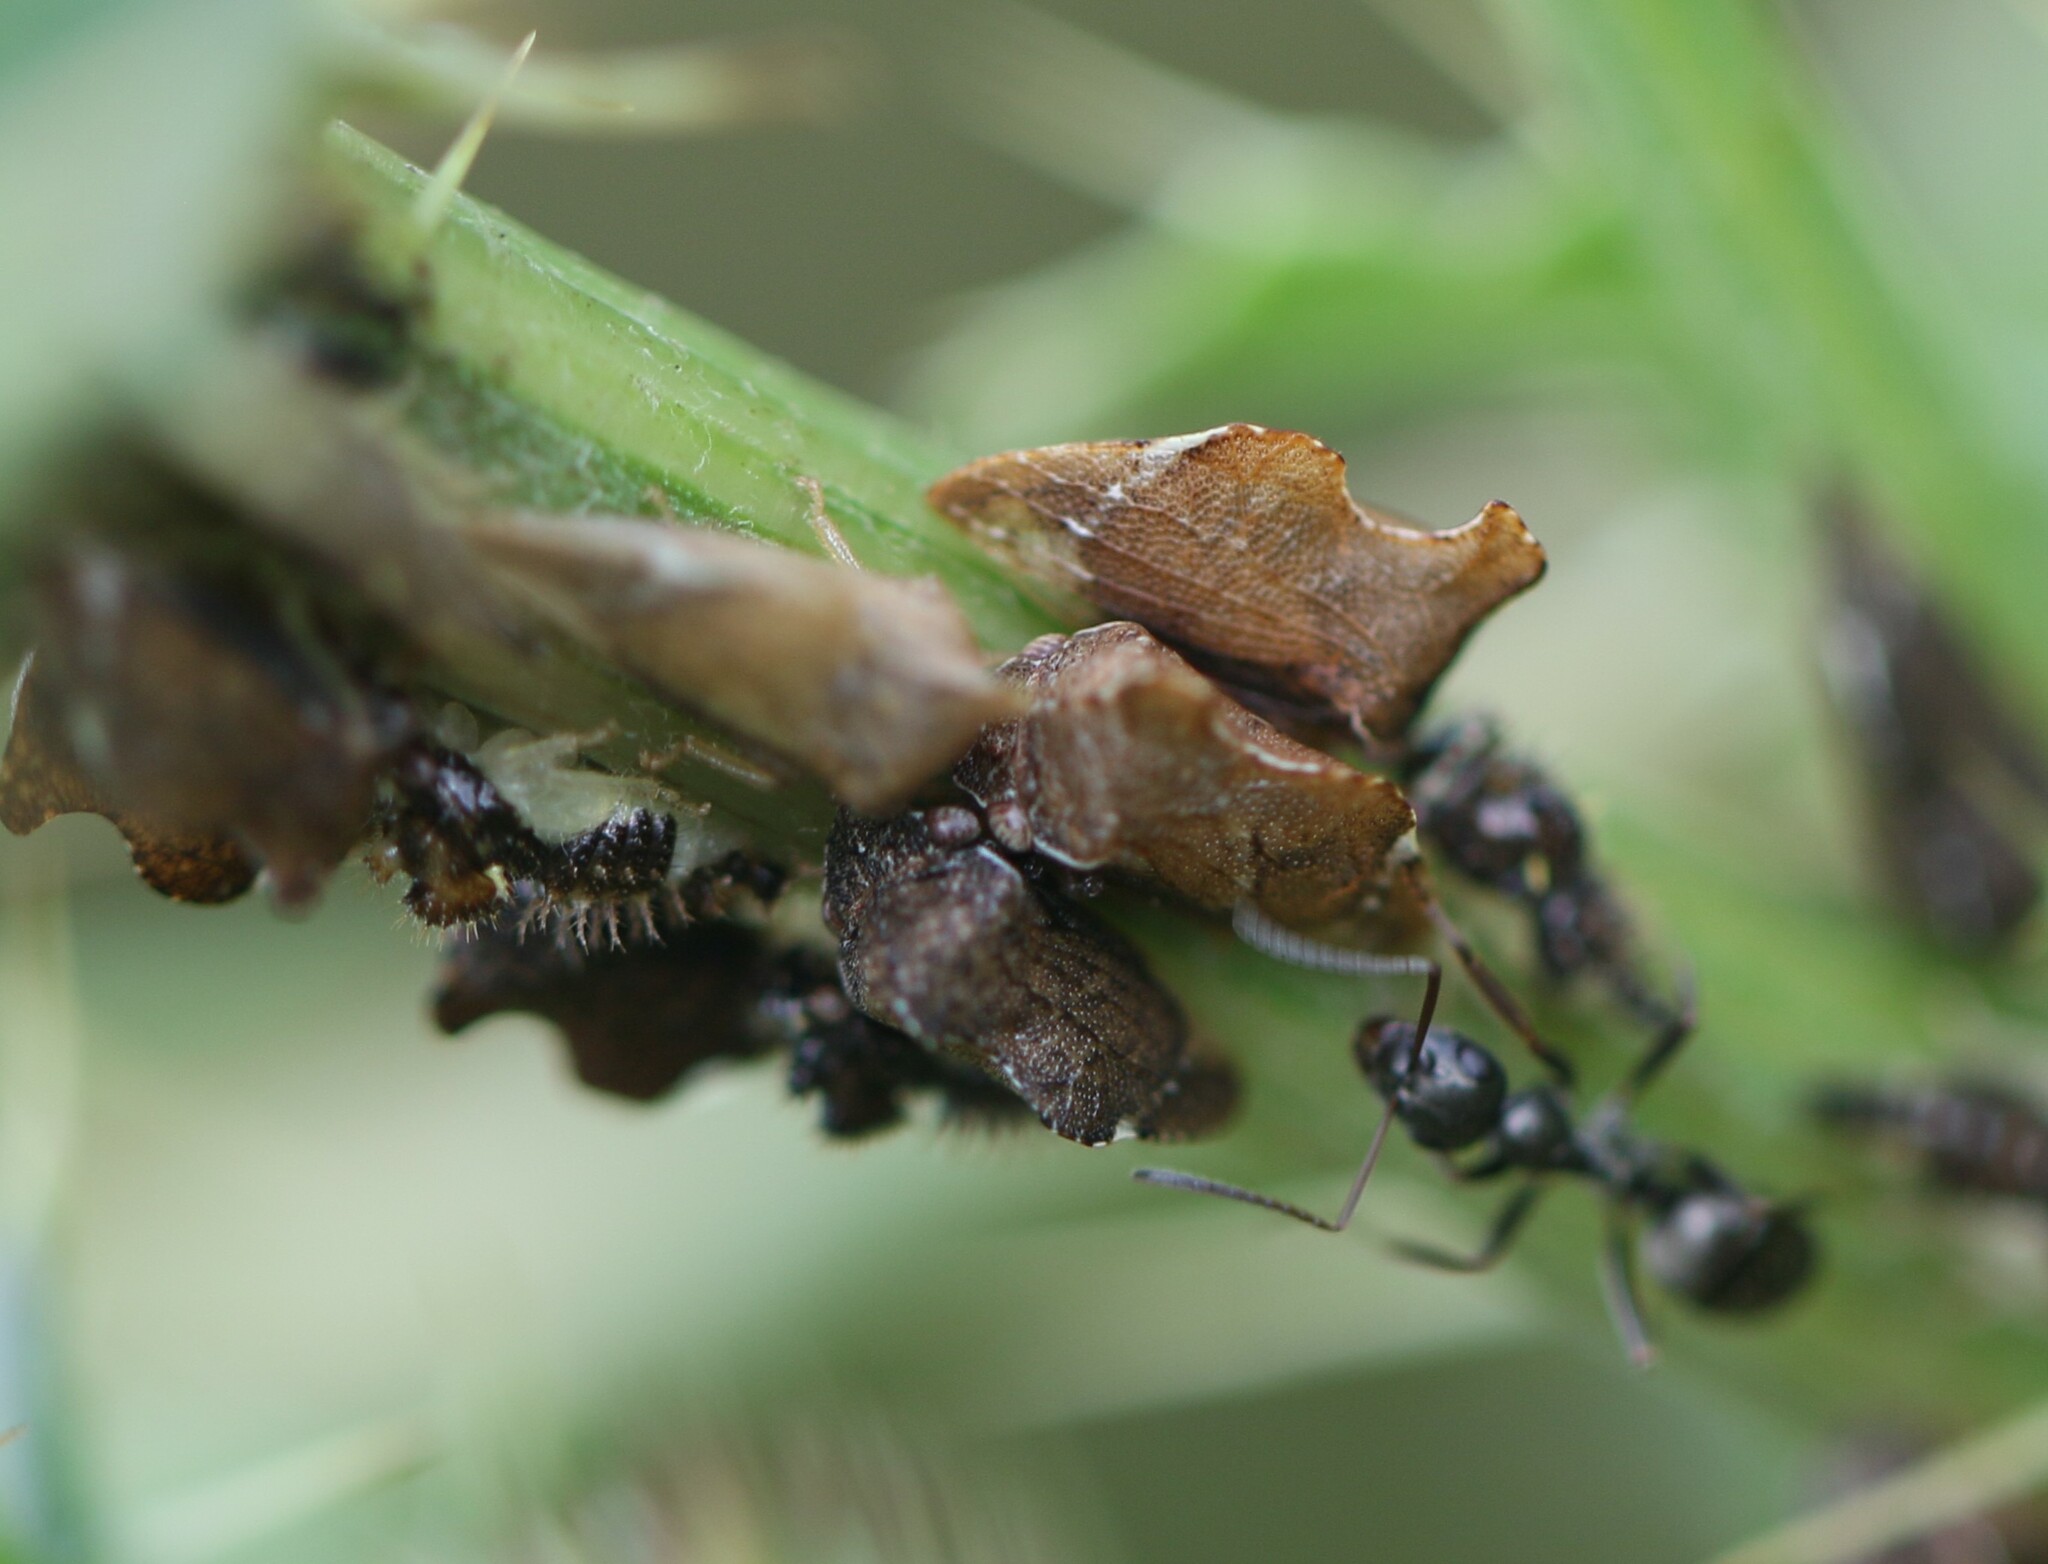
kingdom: Animalia
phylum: Arthropoda
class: Insecta
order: Hemiptera
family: Membracidae
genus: Entylia
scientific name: Entylia carinata
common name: Keeled treehopper
